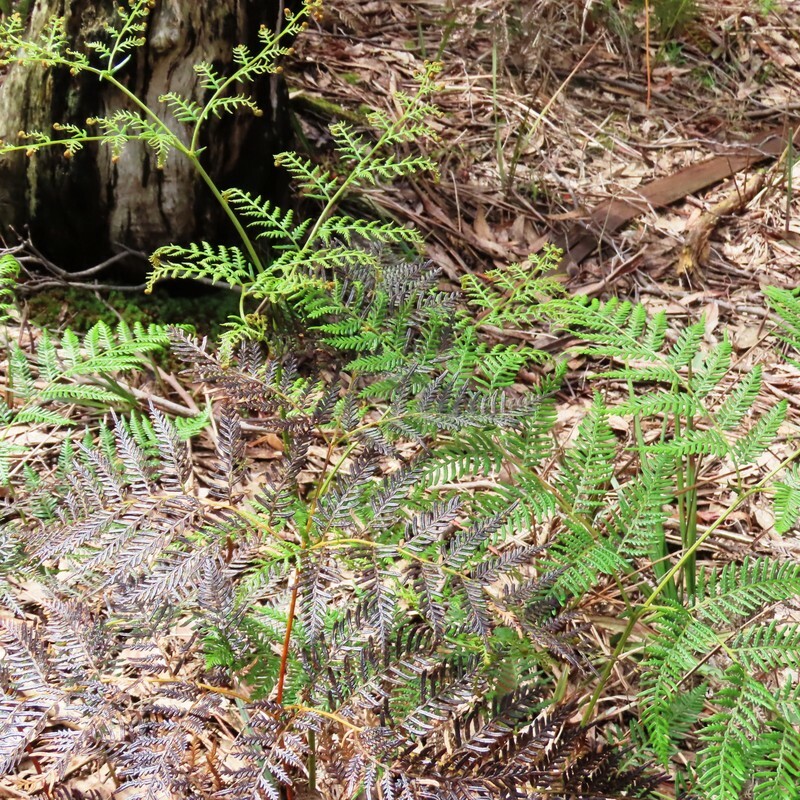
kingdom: Plantae
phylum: Tracheophyta
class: Polypodiopsida
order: Polypodiales
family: Dennstaedtiaceae
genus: Pteridium
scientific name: Pteridium esculentum
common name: Bracken fern
